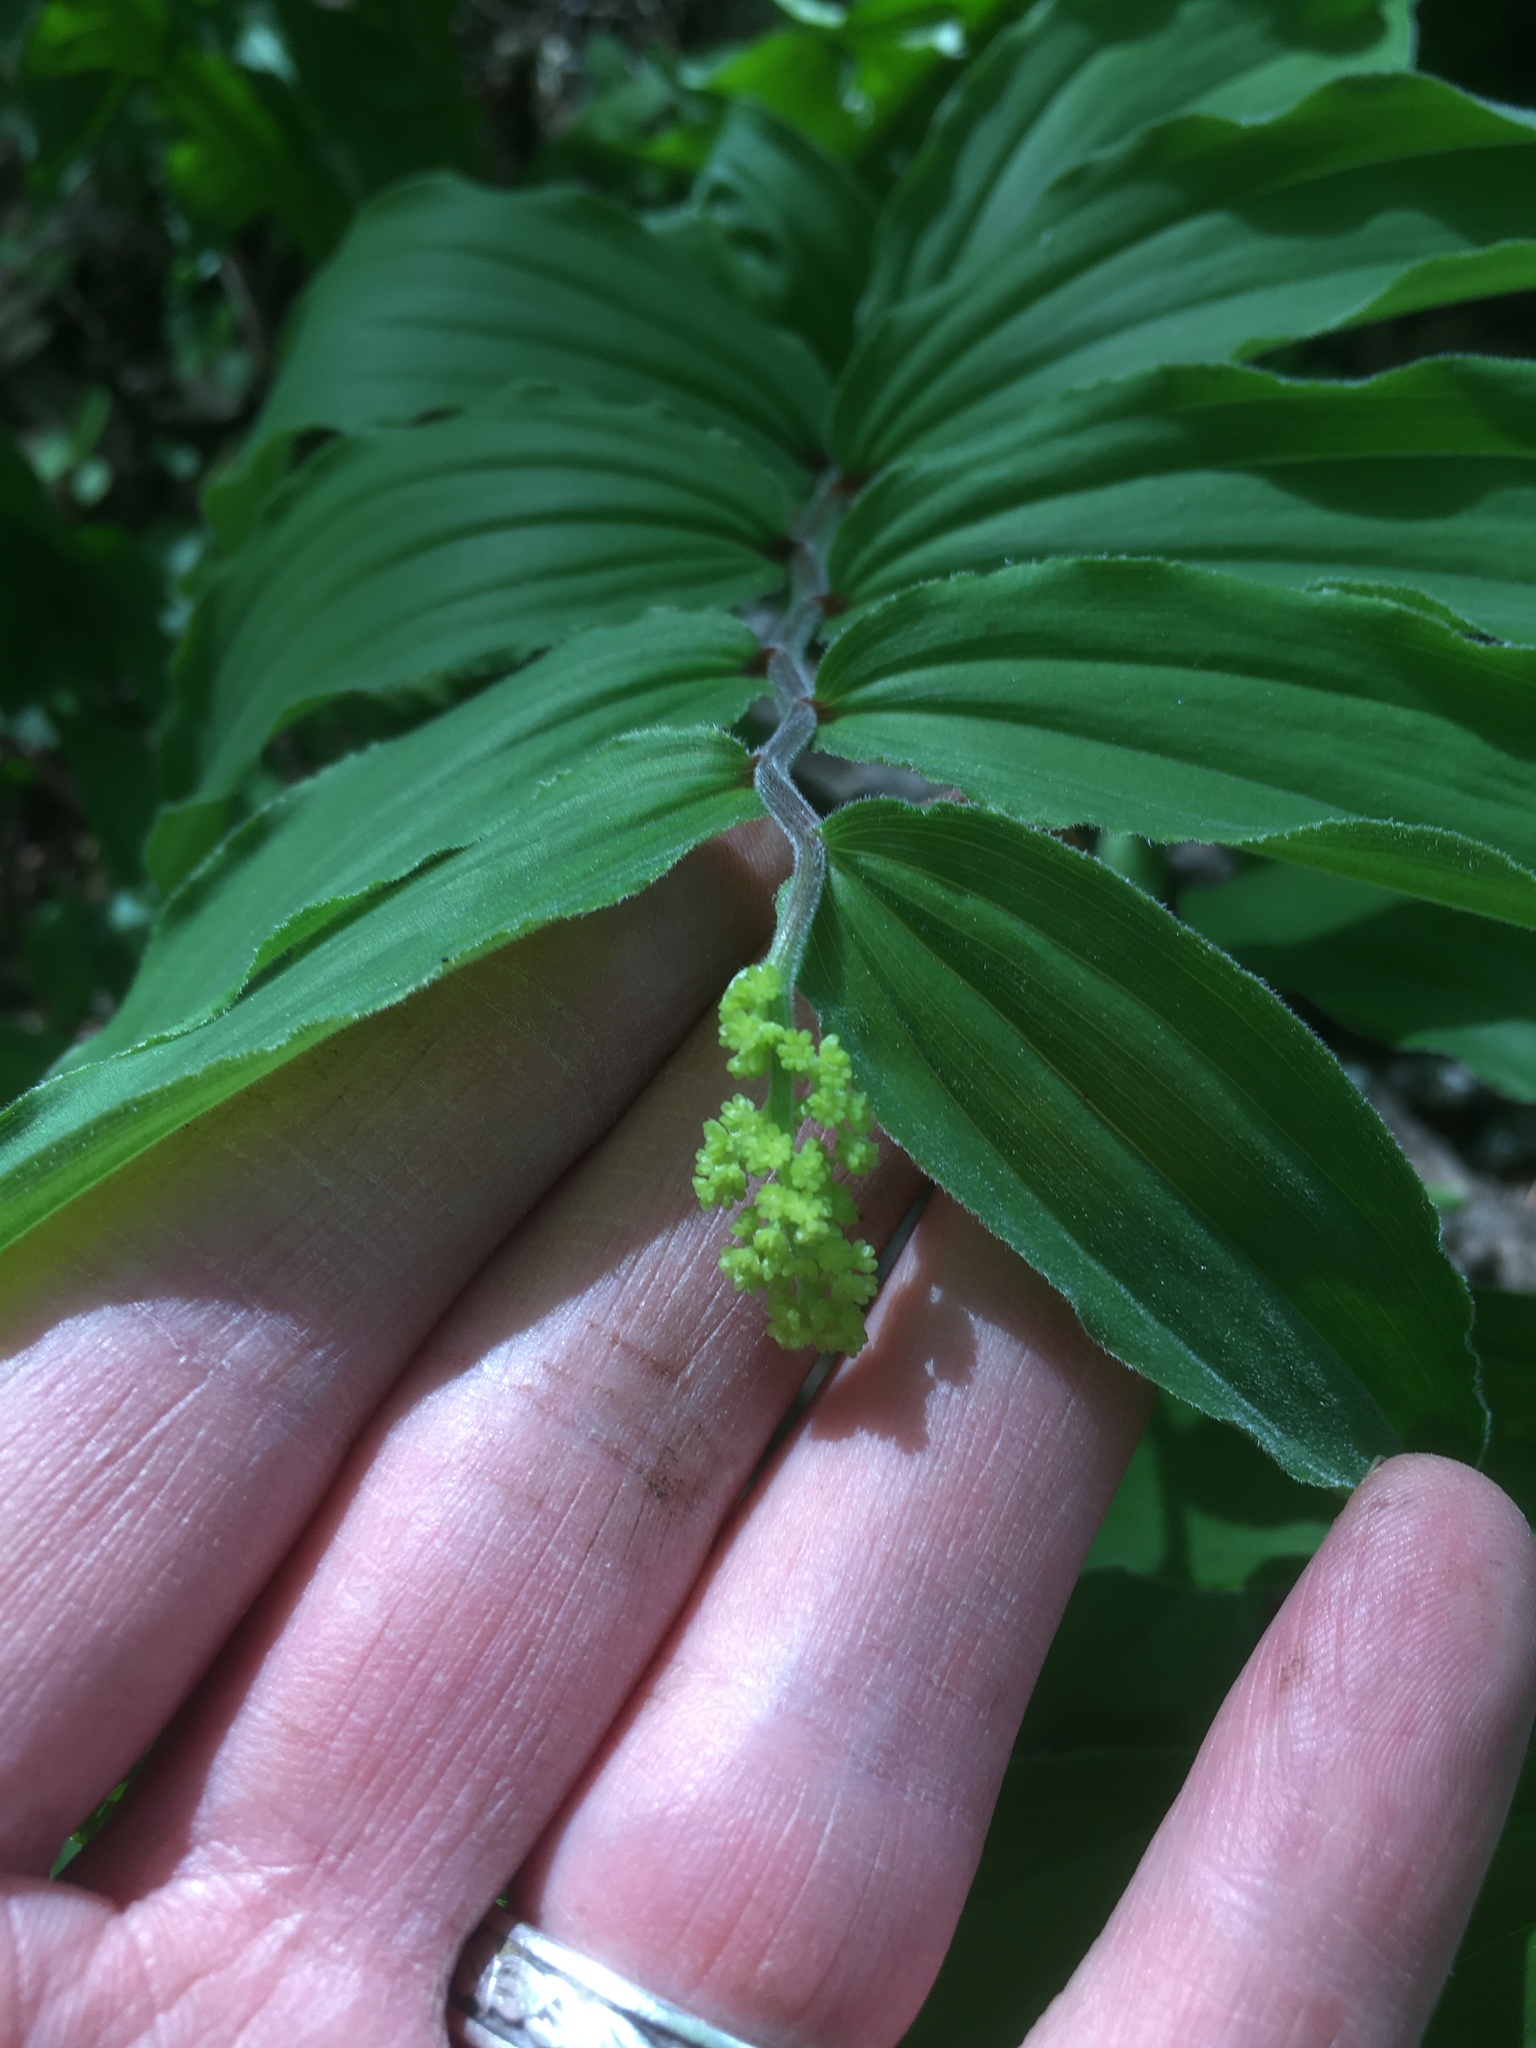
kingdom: Plantae
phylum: Tracheophyta
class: Liliopsida
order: Asparagales
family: Asparagaceae
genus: Maianthemum
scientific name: Maianthemum racemosum
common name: False spikenard
